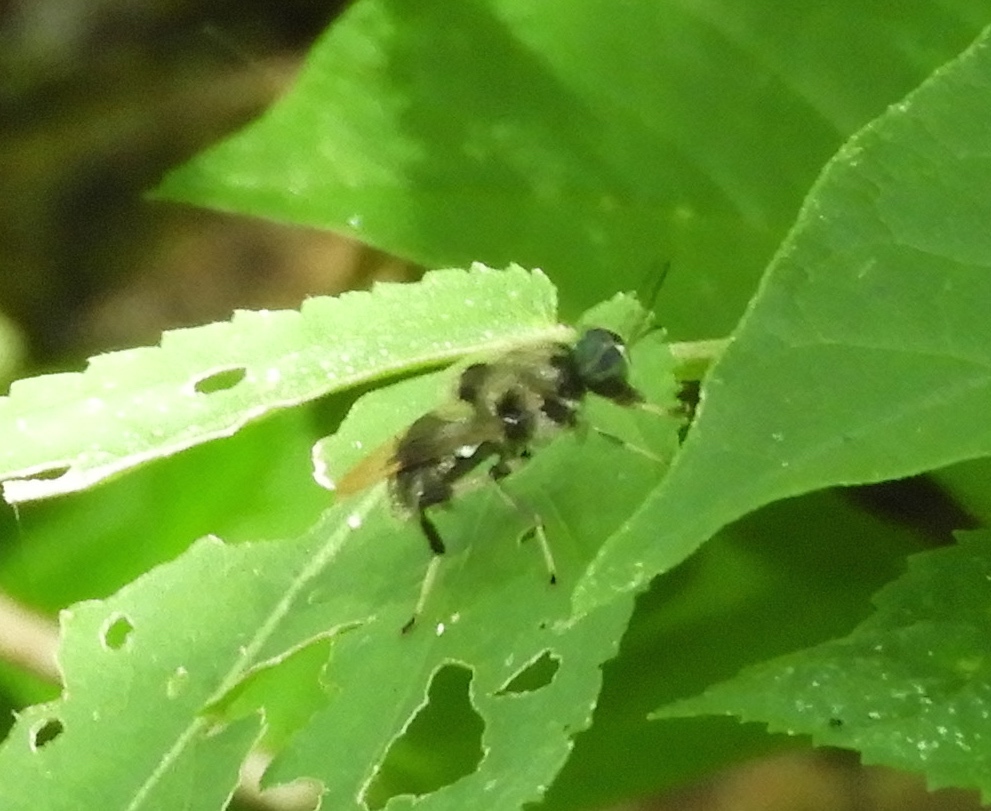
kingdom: Animalia
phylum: Arthropoda
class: Insecta
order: Diptera
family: Stratiomyidae
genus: Cyphomyia
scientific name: Cyphomyia
